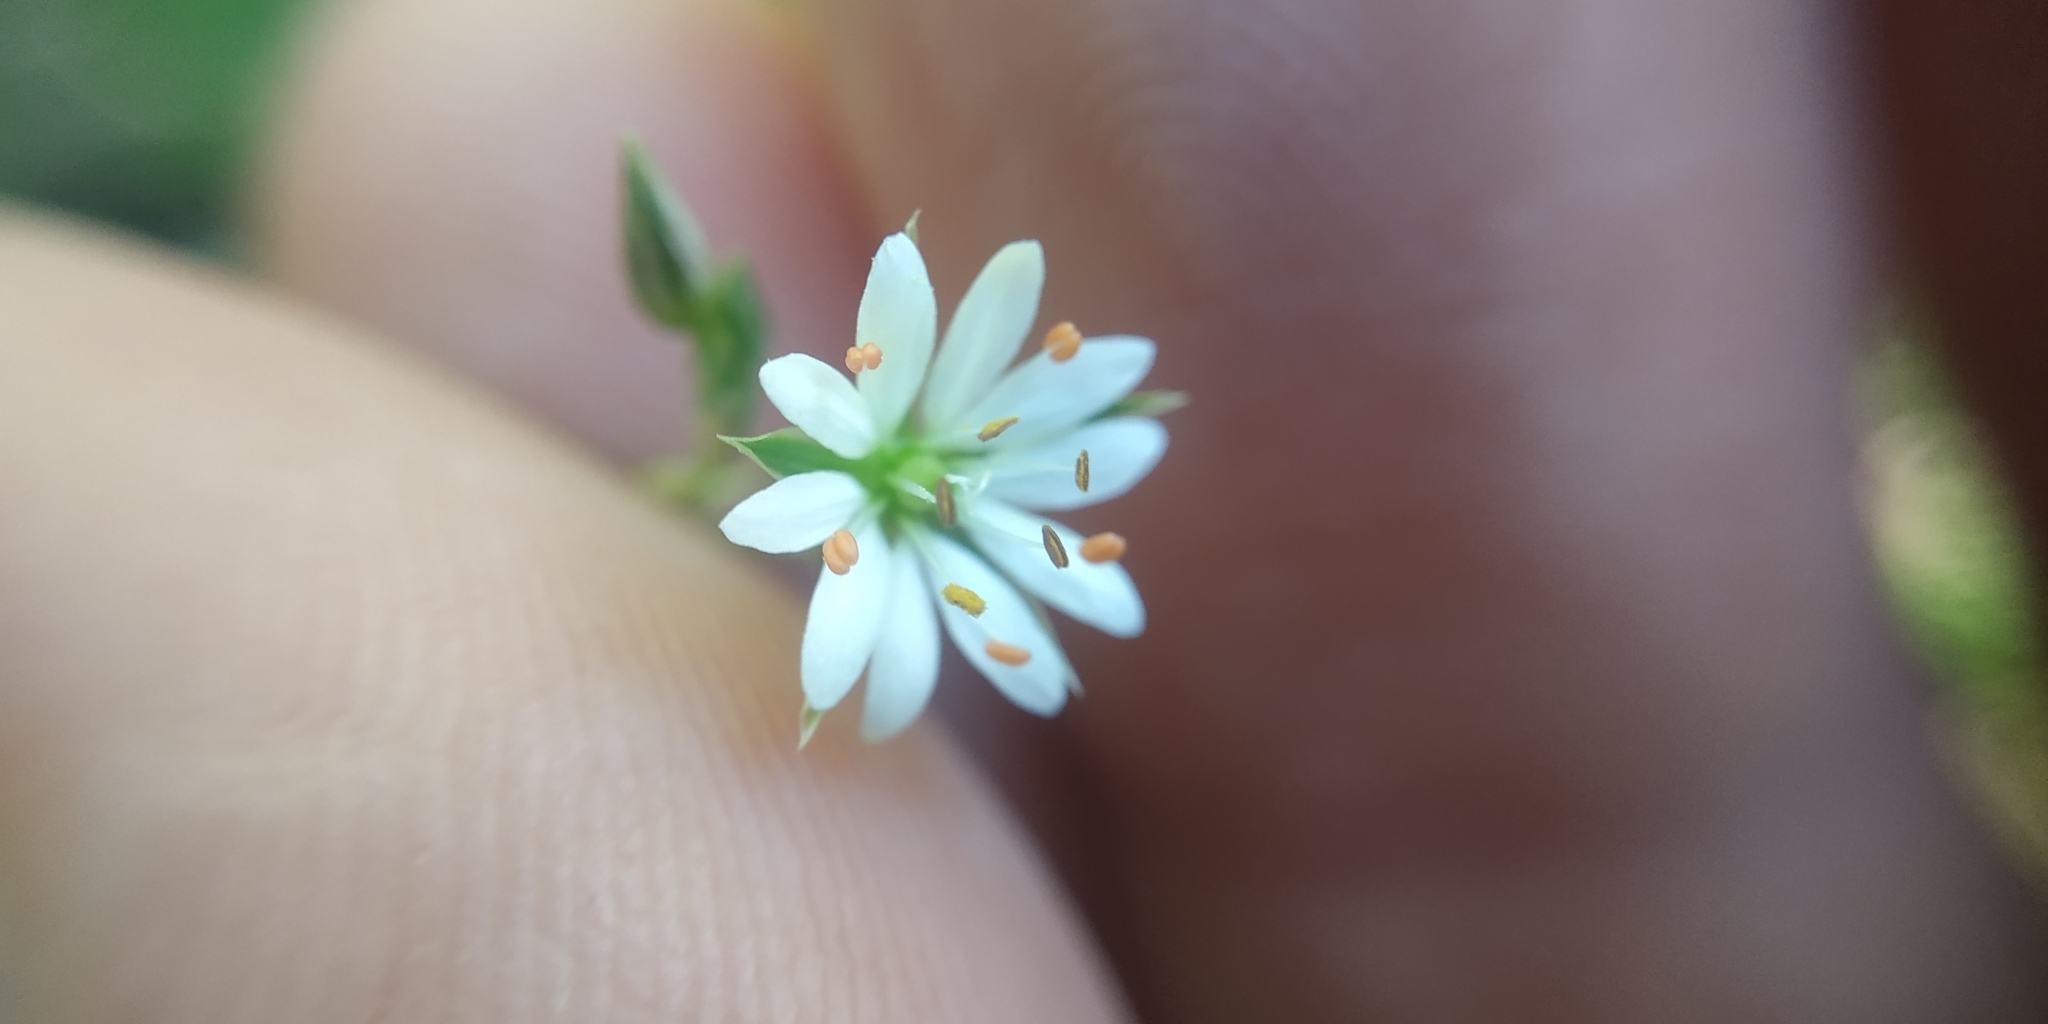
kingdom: Plantae
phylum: Tracheophyta
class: Magnoliopsida
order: Caryophyllales
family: Caryophyllaceae
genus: Stellaria
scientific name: Stellaria graminea
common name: Grass-like starwort
